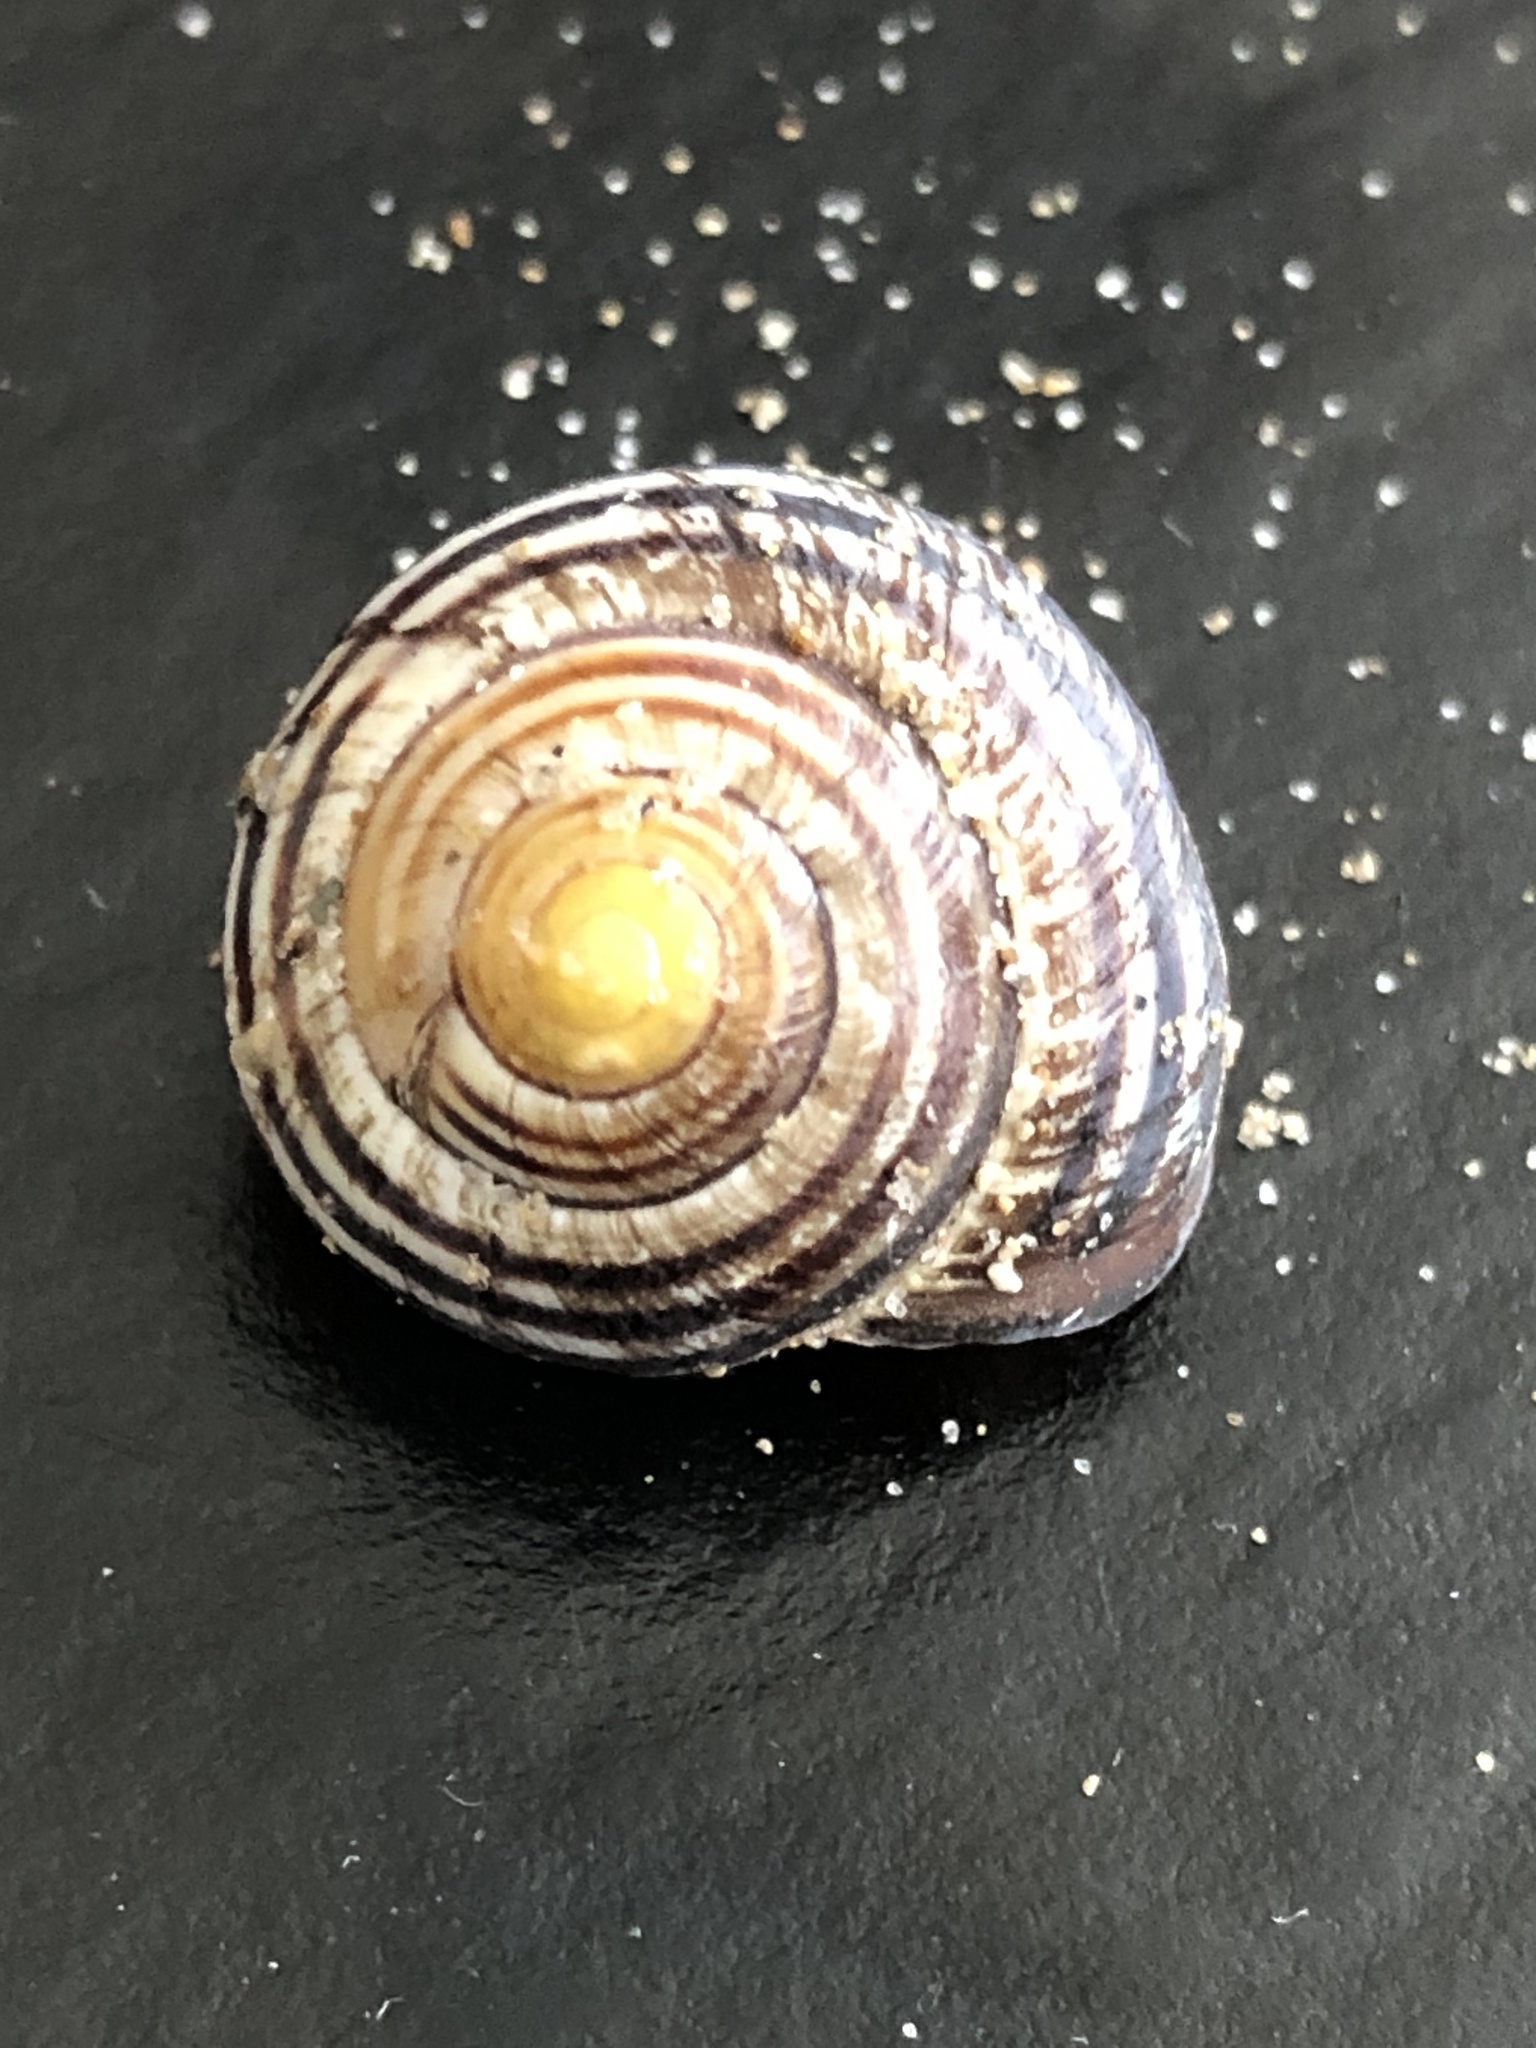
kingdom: Animalia
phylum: Mollusca
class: Gastropoda
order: Stylommatophora
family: Helicidae
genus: Cepaea
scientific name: Cepaea nemoralis
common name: Grovesnail
